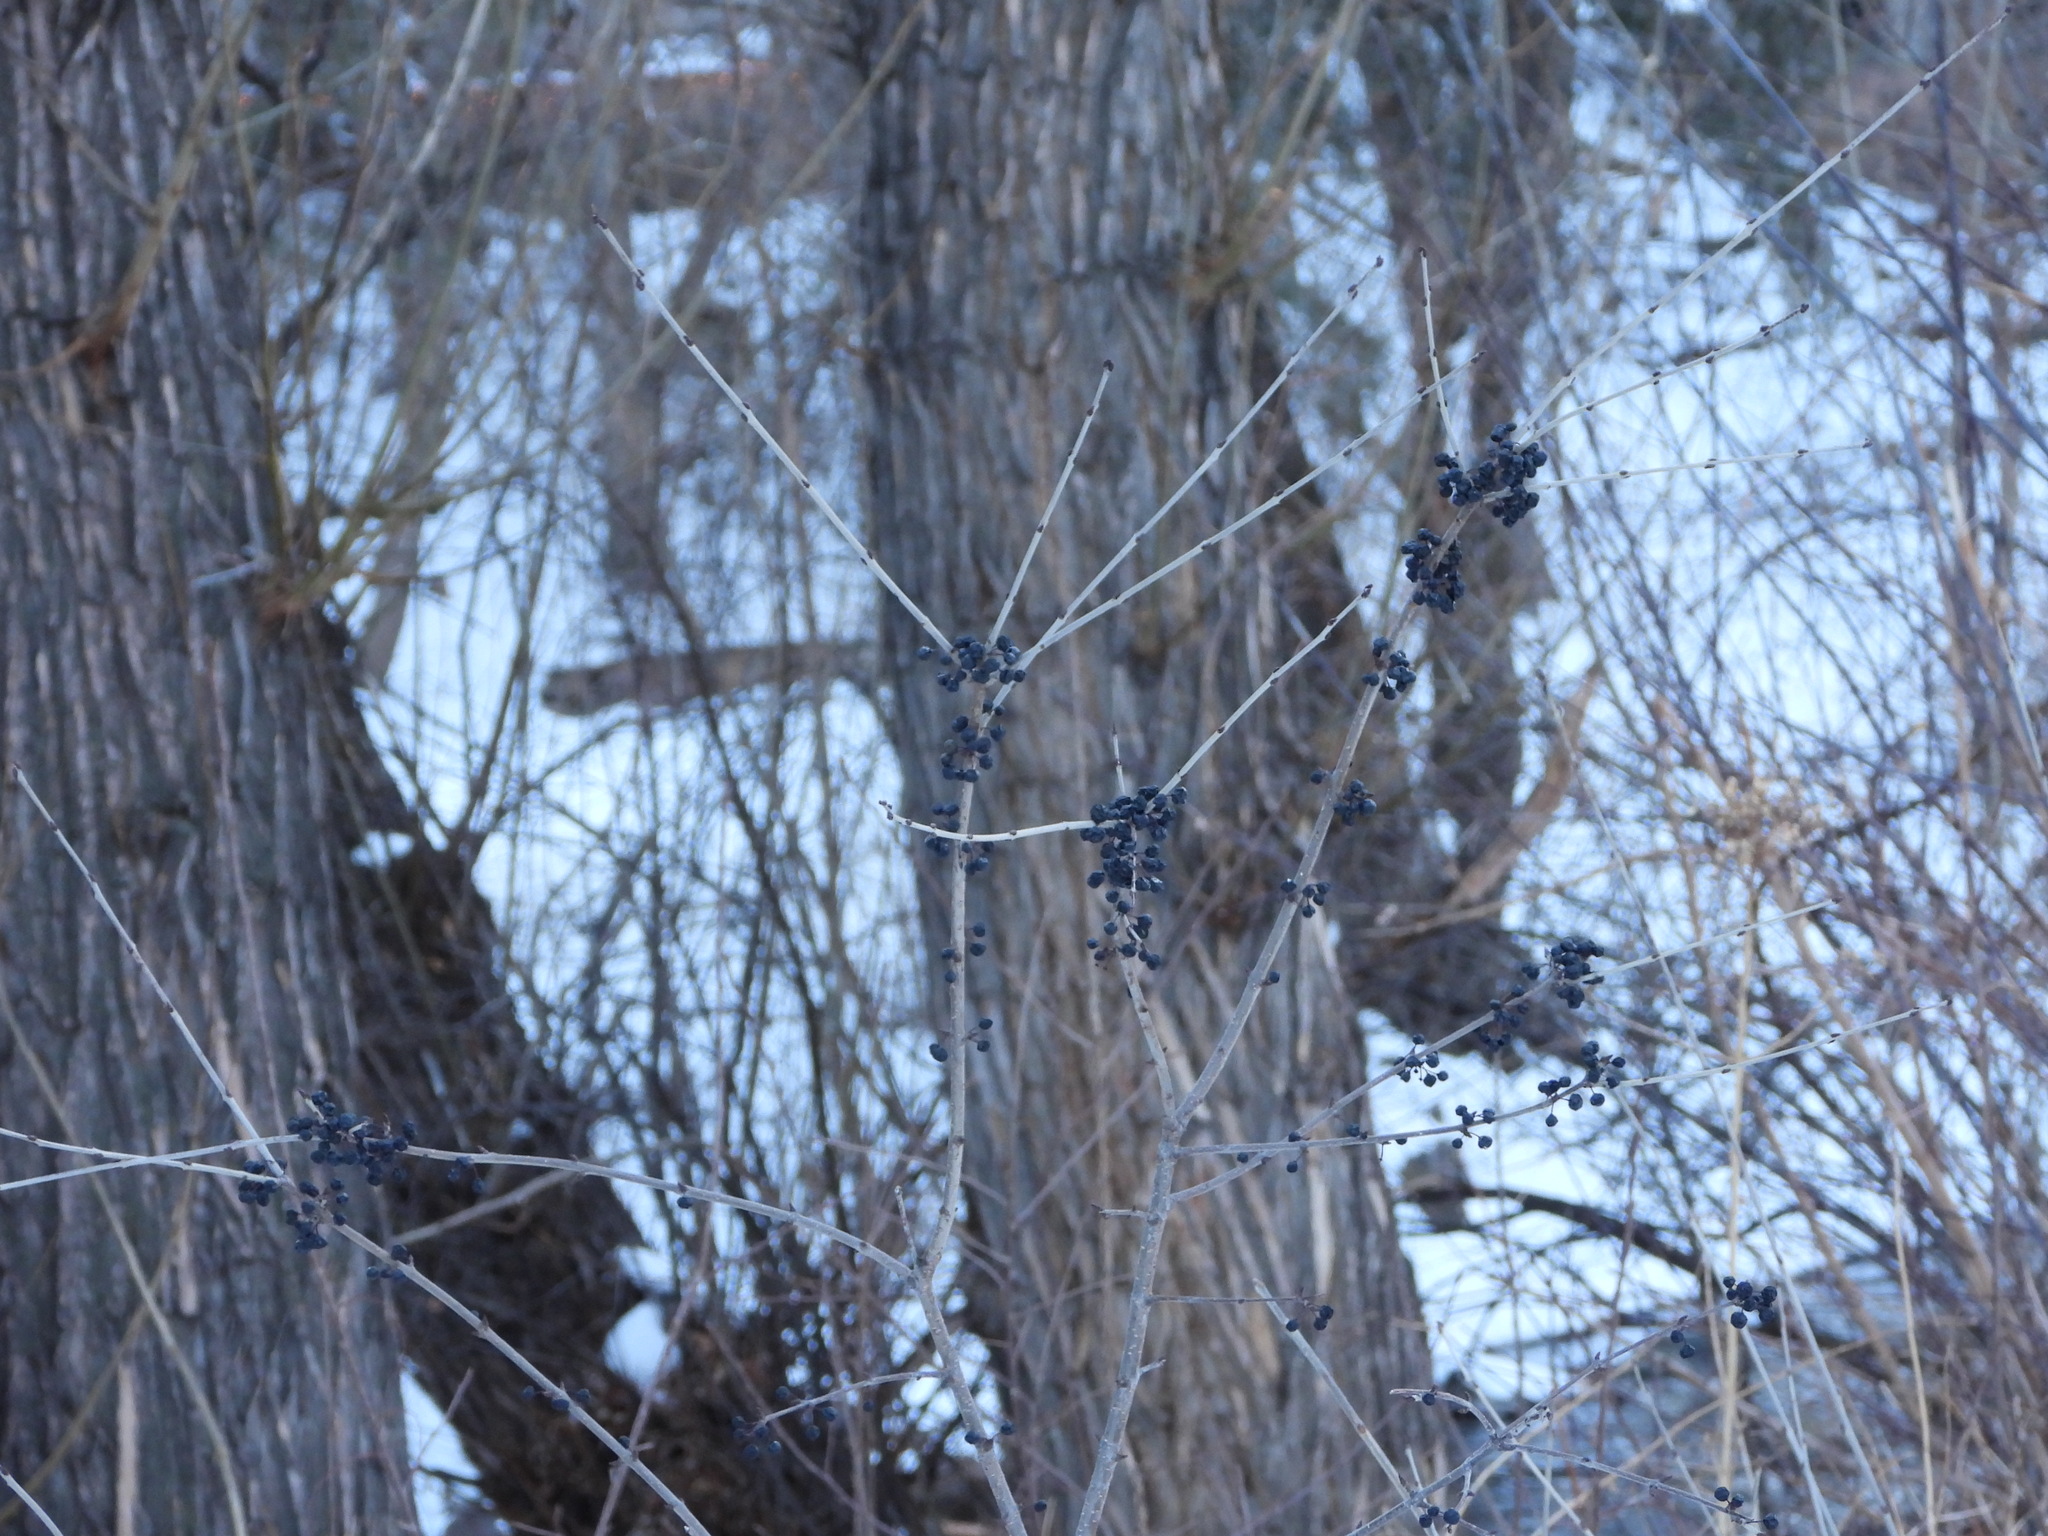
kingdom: Plantae
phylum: Tracheophyta
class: Magnoliopsida
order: Rosales
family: Rhamnaceae
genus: Rhamnus
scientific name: Rhamnus cathartica
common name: Common buckthorn
